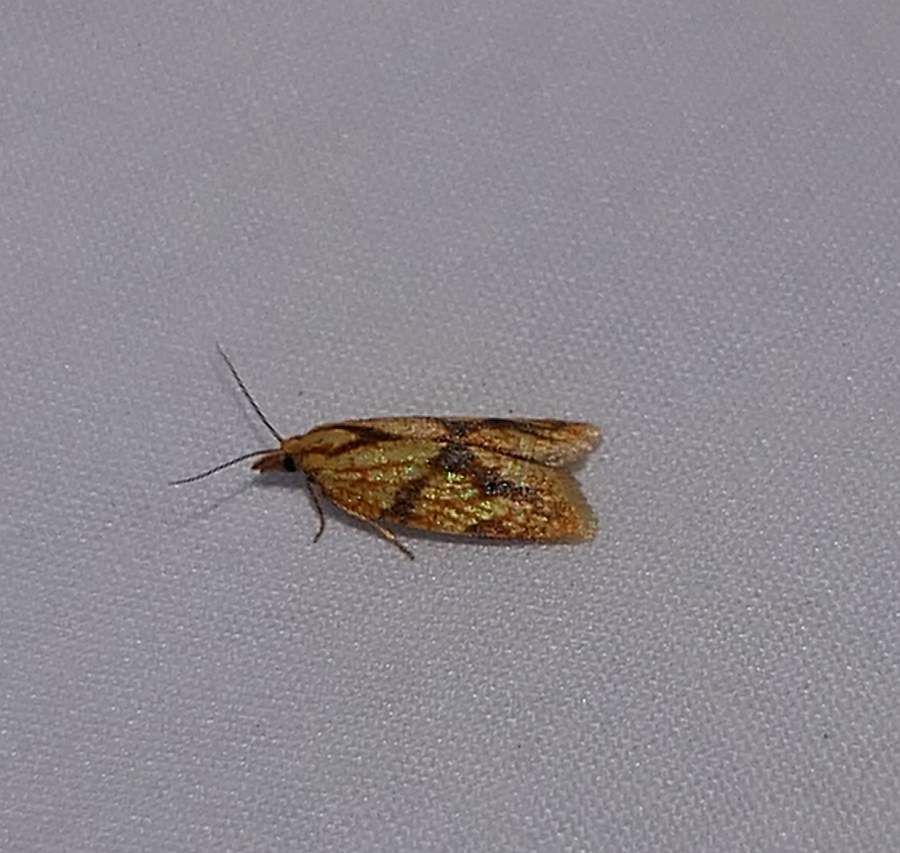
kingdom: Animalia
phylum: Arthropoda
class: Insecta
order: Lepidoptera
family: Tortricidae
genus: Sparganothis
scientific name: Sparganothis sulfureana
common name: Sparganothis fruitworm moth
